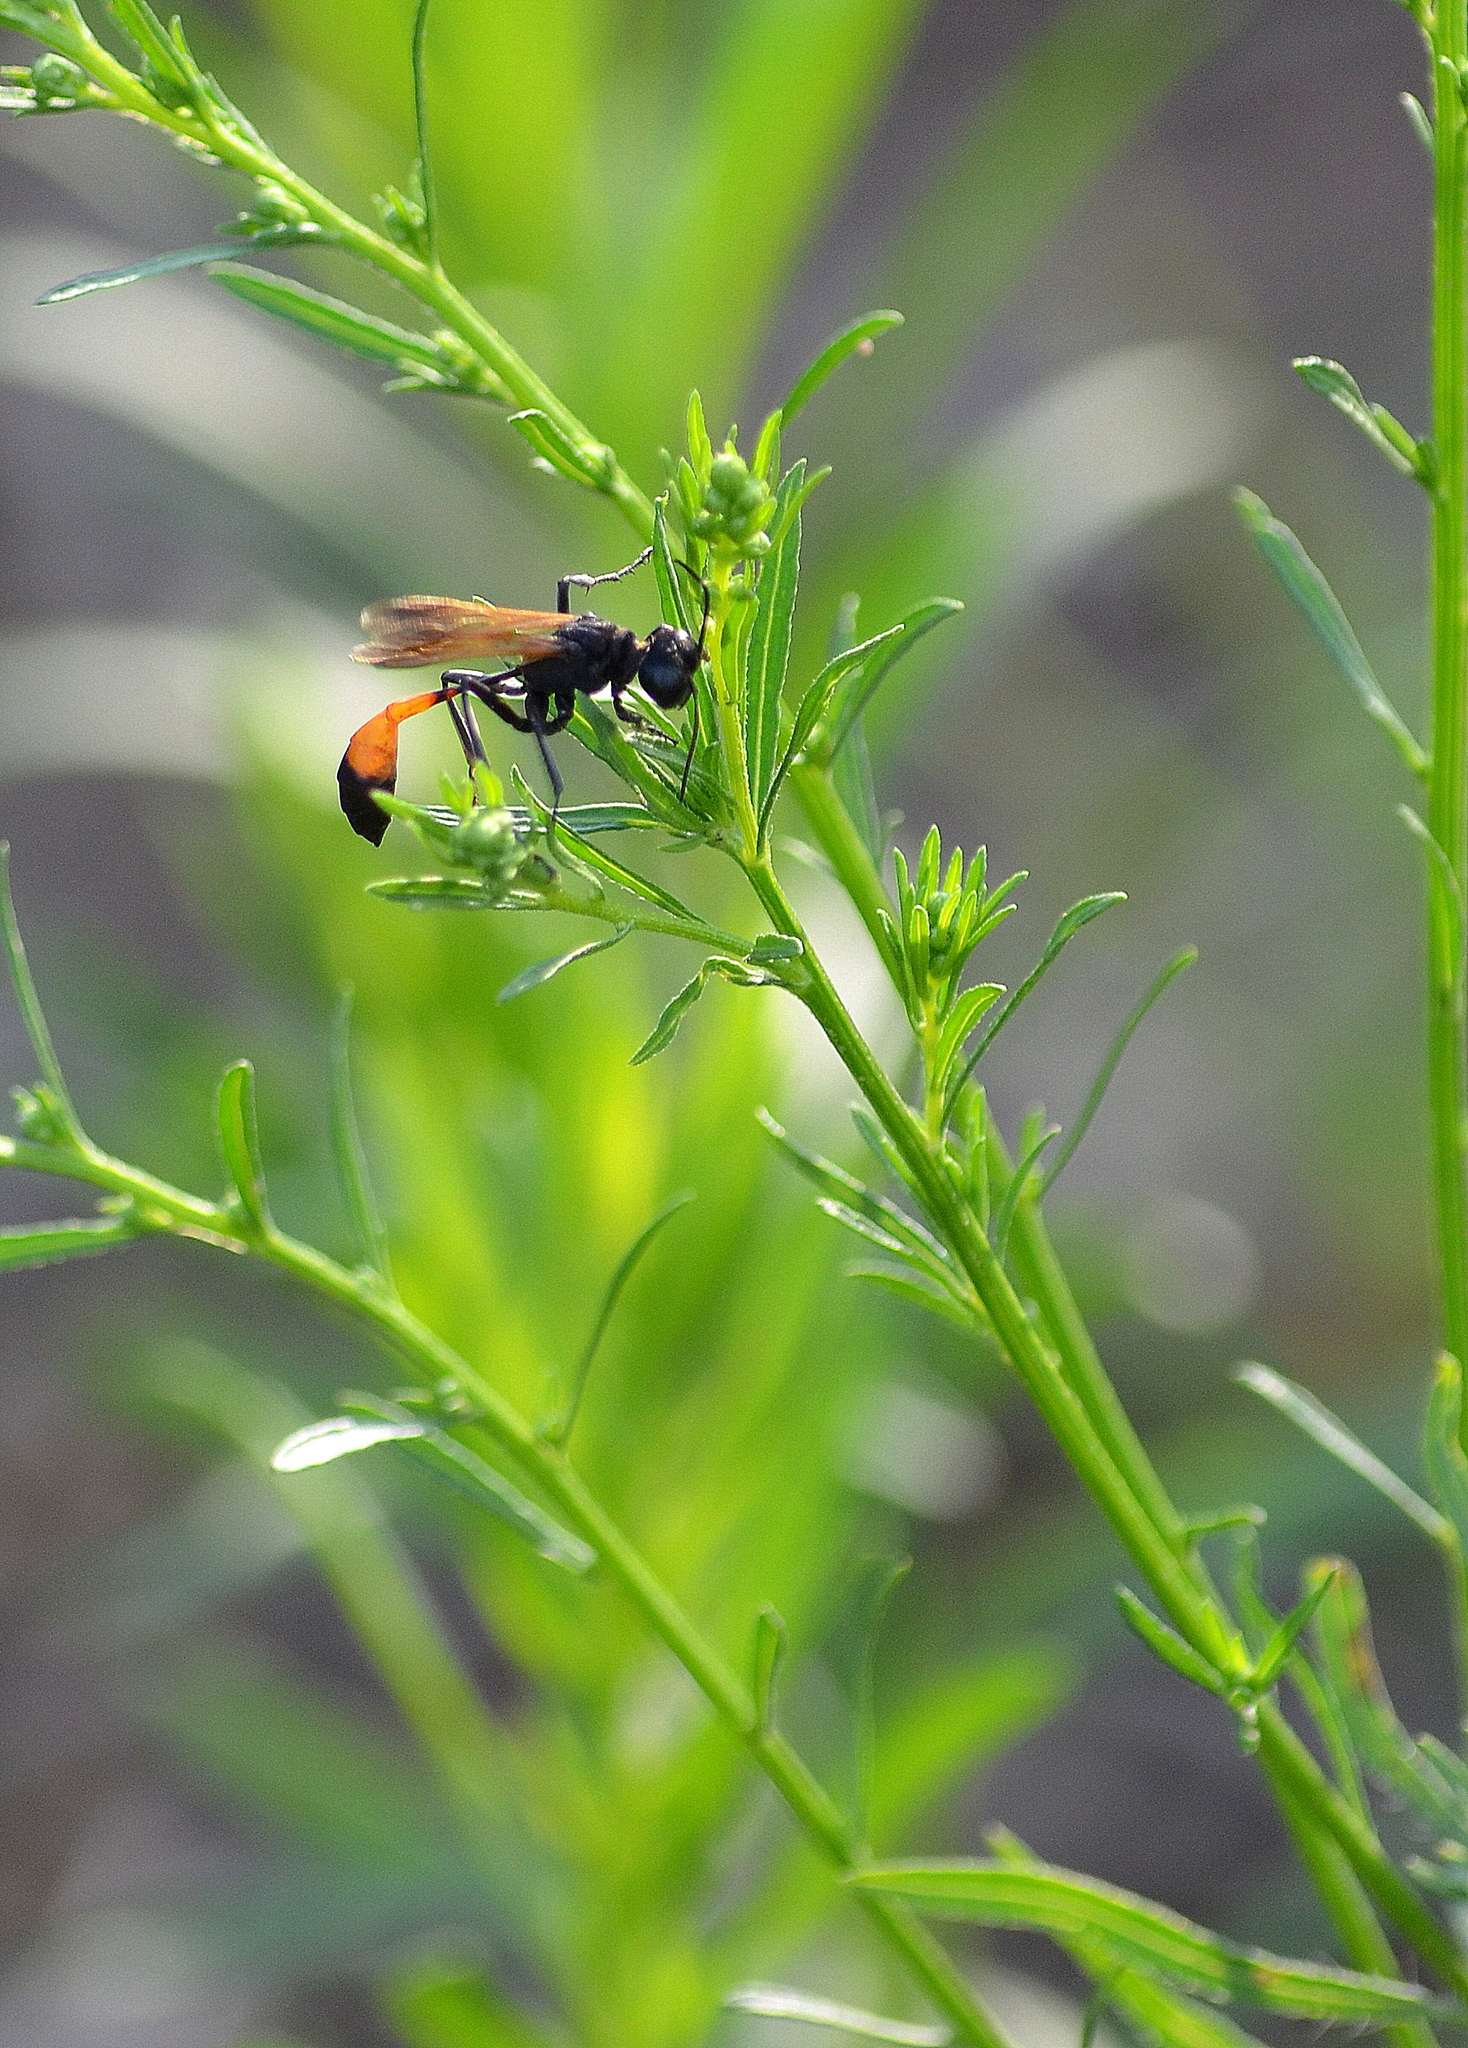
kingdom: Animalia
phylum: Arthropoda
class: Insecta
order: Hymenoptera
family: Sphecidae
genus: Ammophila
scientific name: Ammophila pictipennis
